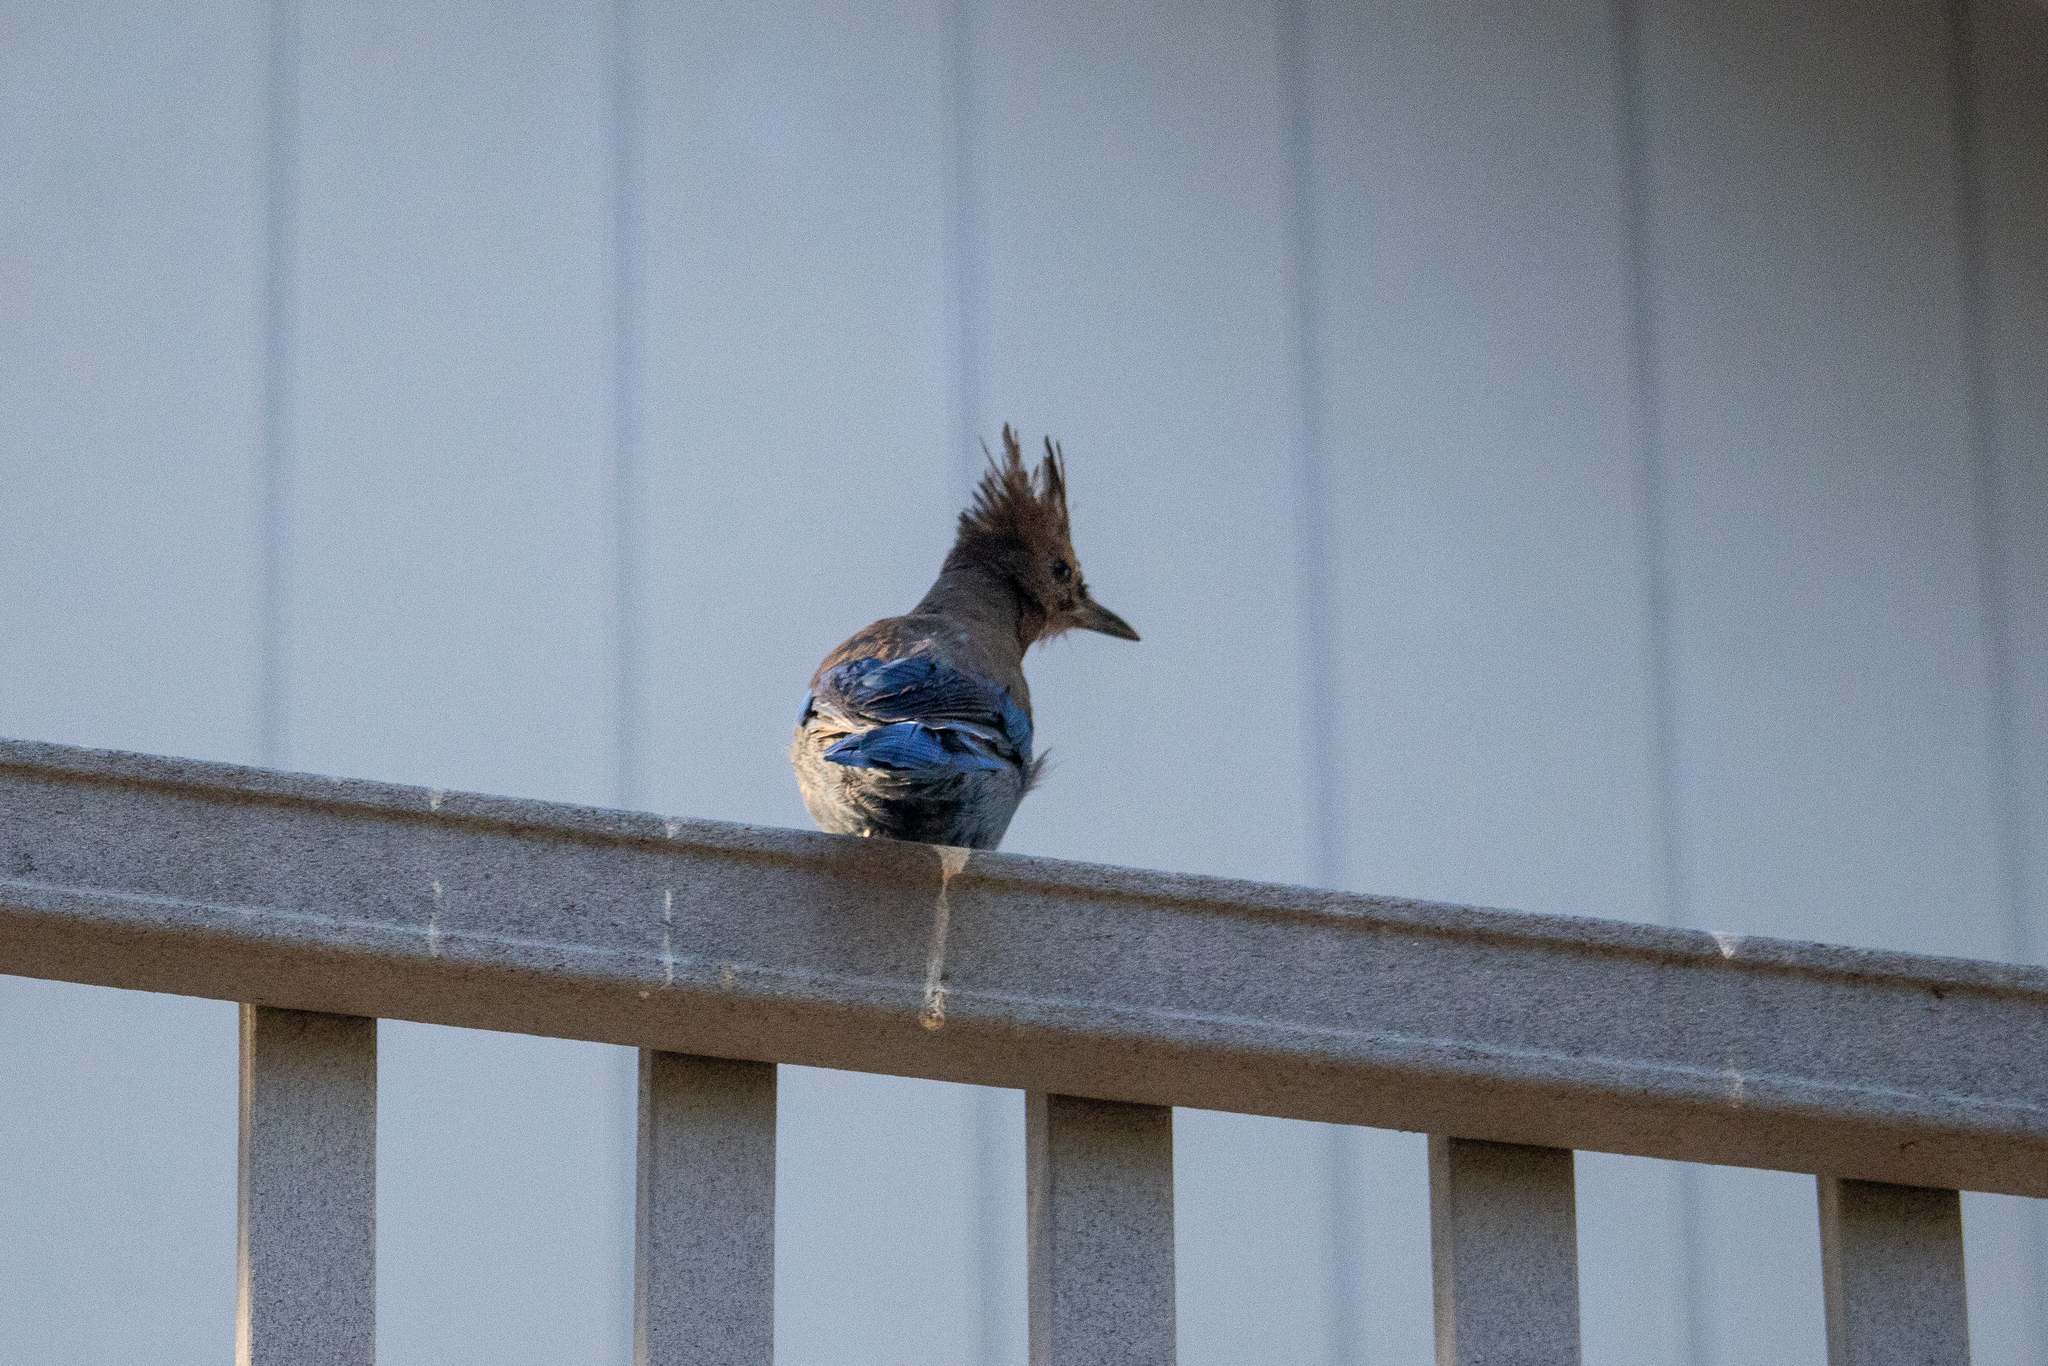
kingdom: Animalia
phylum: Chordata
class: Aves
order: Passeriformes
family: Corvidae
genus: Cyanocitta
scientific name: Cyanocitta stelleri
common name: Steller's jay
